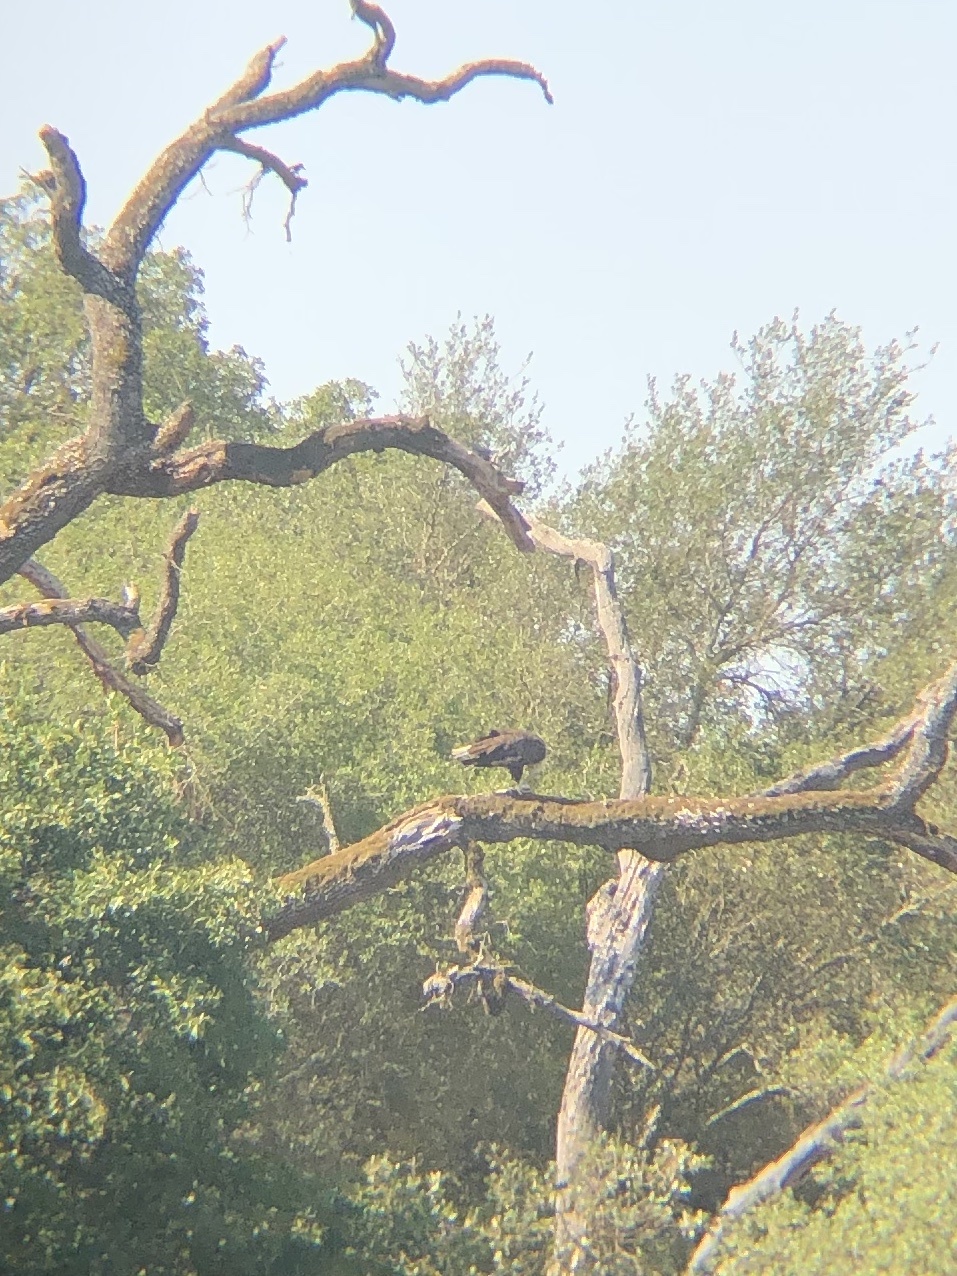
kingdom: Animalia
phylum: Chordata
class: Aves
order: Accipitriformes
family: Accipitridae
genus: Haliaeetus
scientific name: Haliaeetus leucocephalus
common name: Bald eagle
